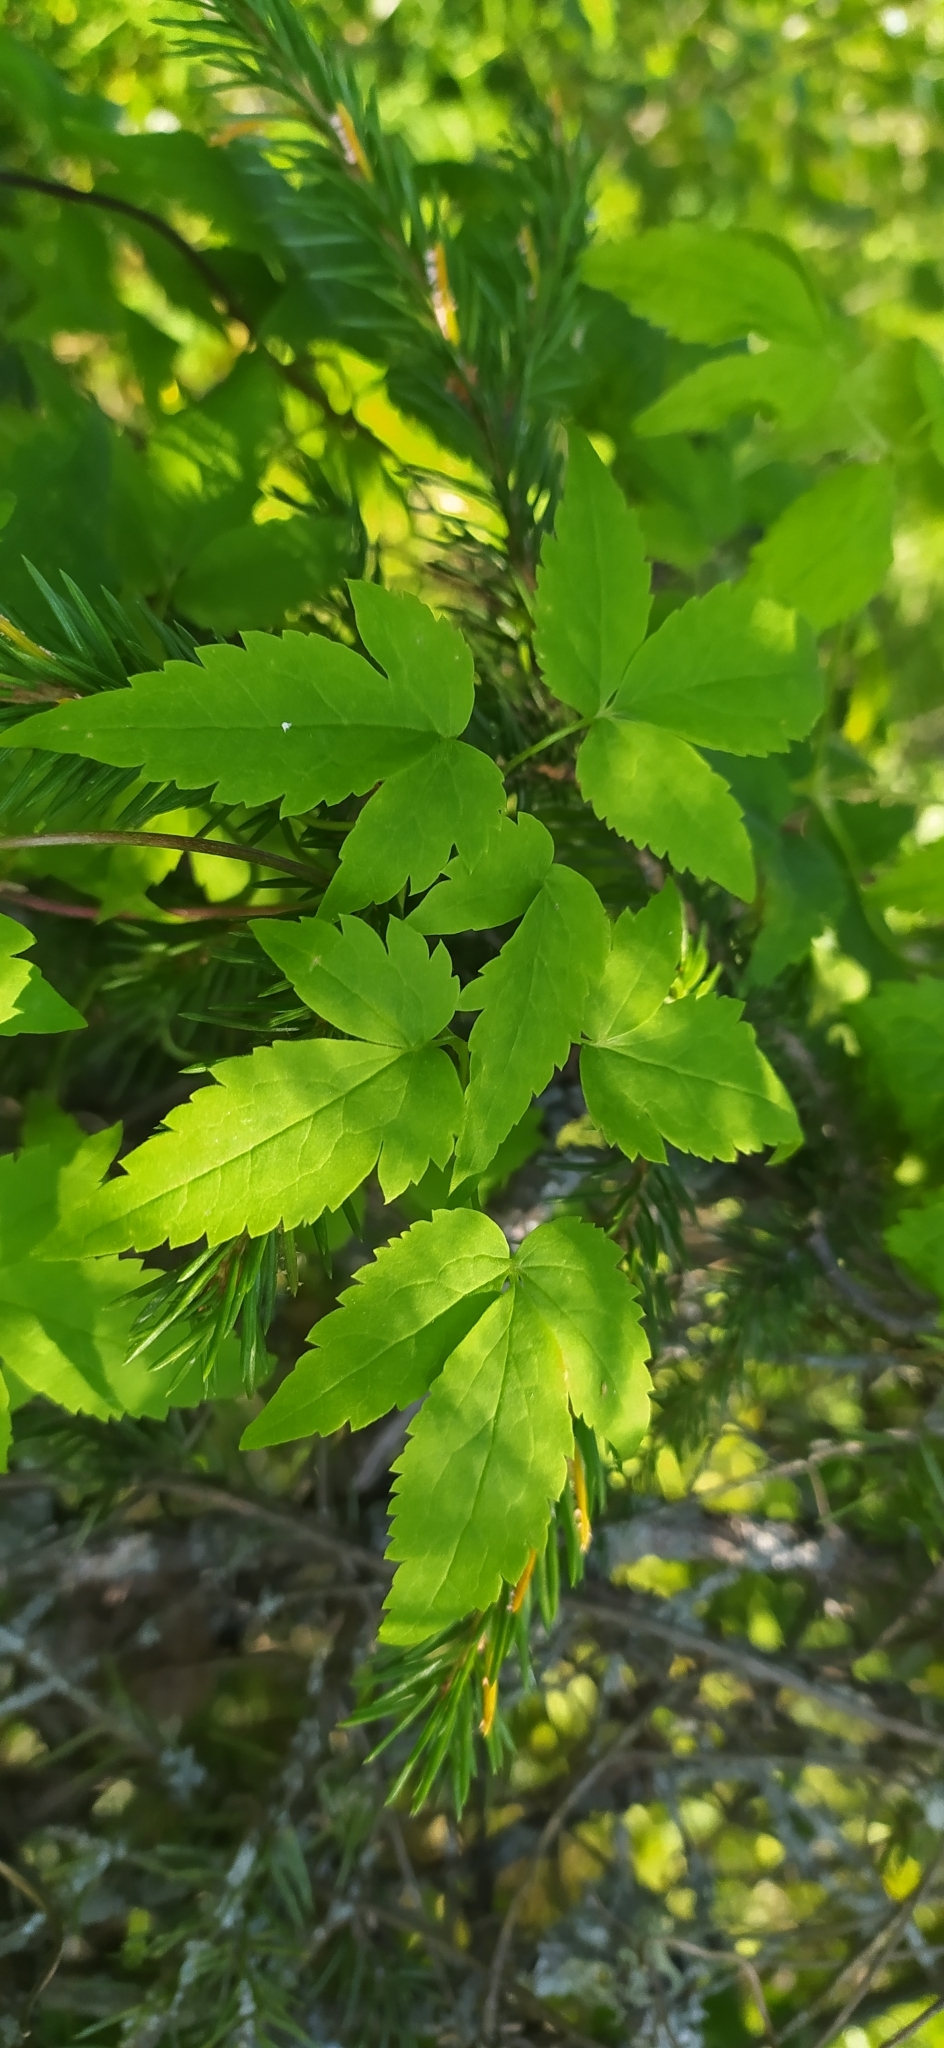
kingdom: Plantae
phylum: Tracheophyta
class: Magnoliopsida
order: Ranunculales
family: Ranunculaceae
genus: Clematis
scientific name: Clematis sibirica
